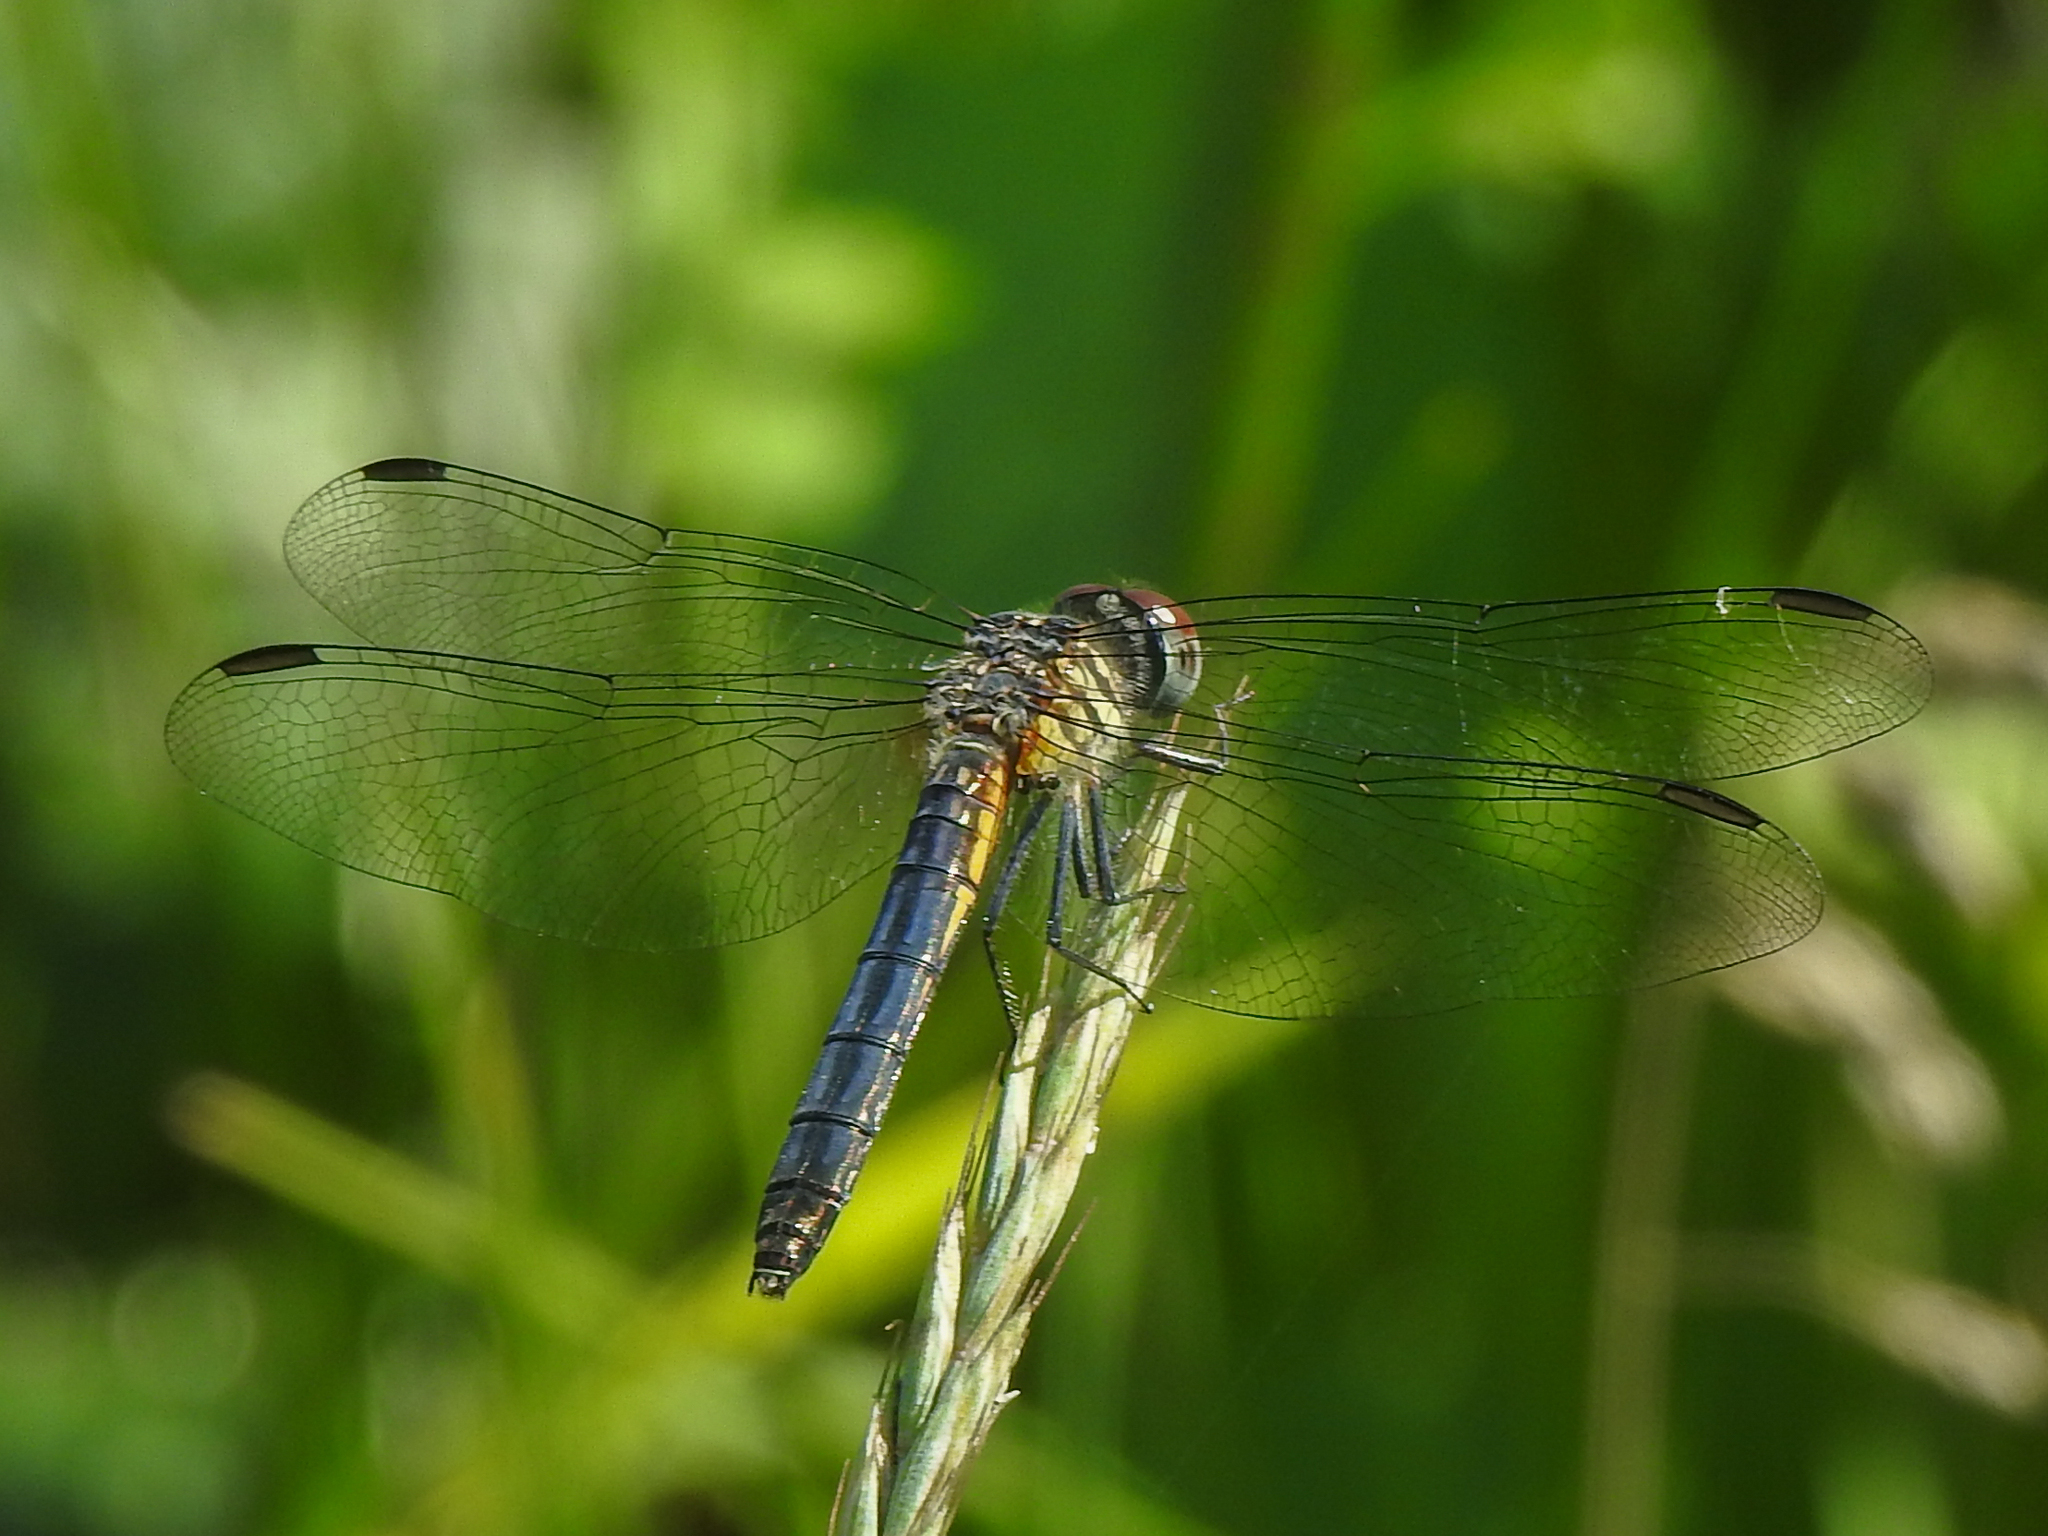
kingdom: Animalia
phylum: Arthropoda
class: Insecta
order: Odonata
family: Libellulidae
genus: Pachydiplax
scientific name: Pachydiplax longipennis
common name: Blue dasher
